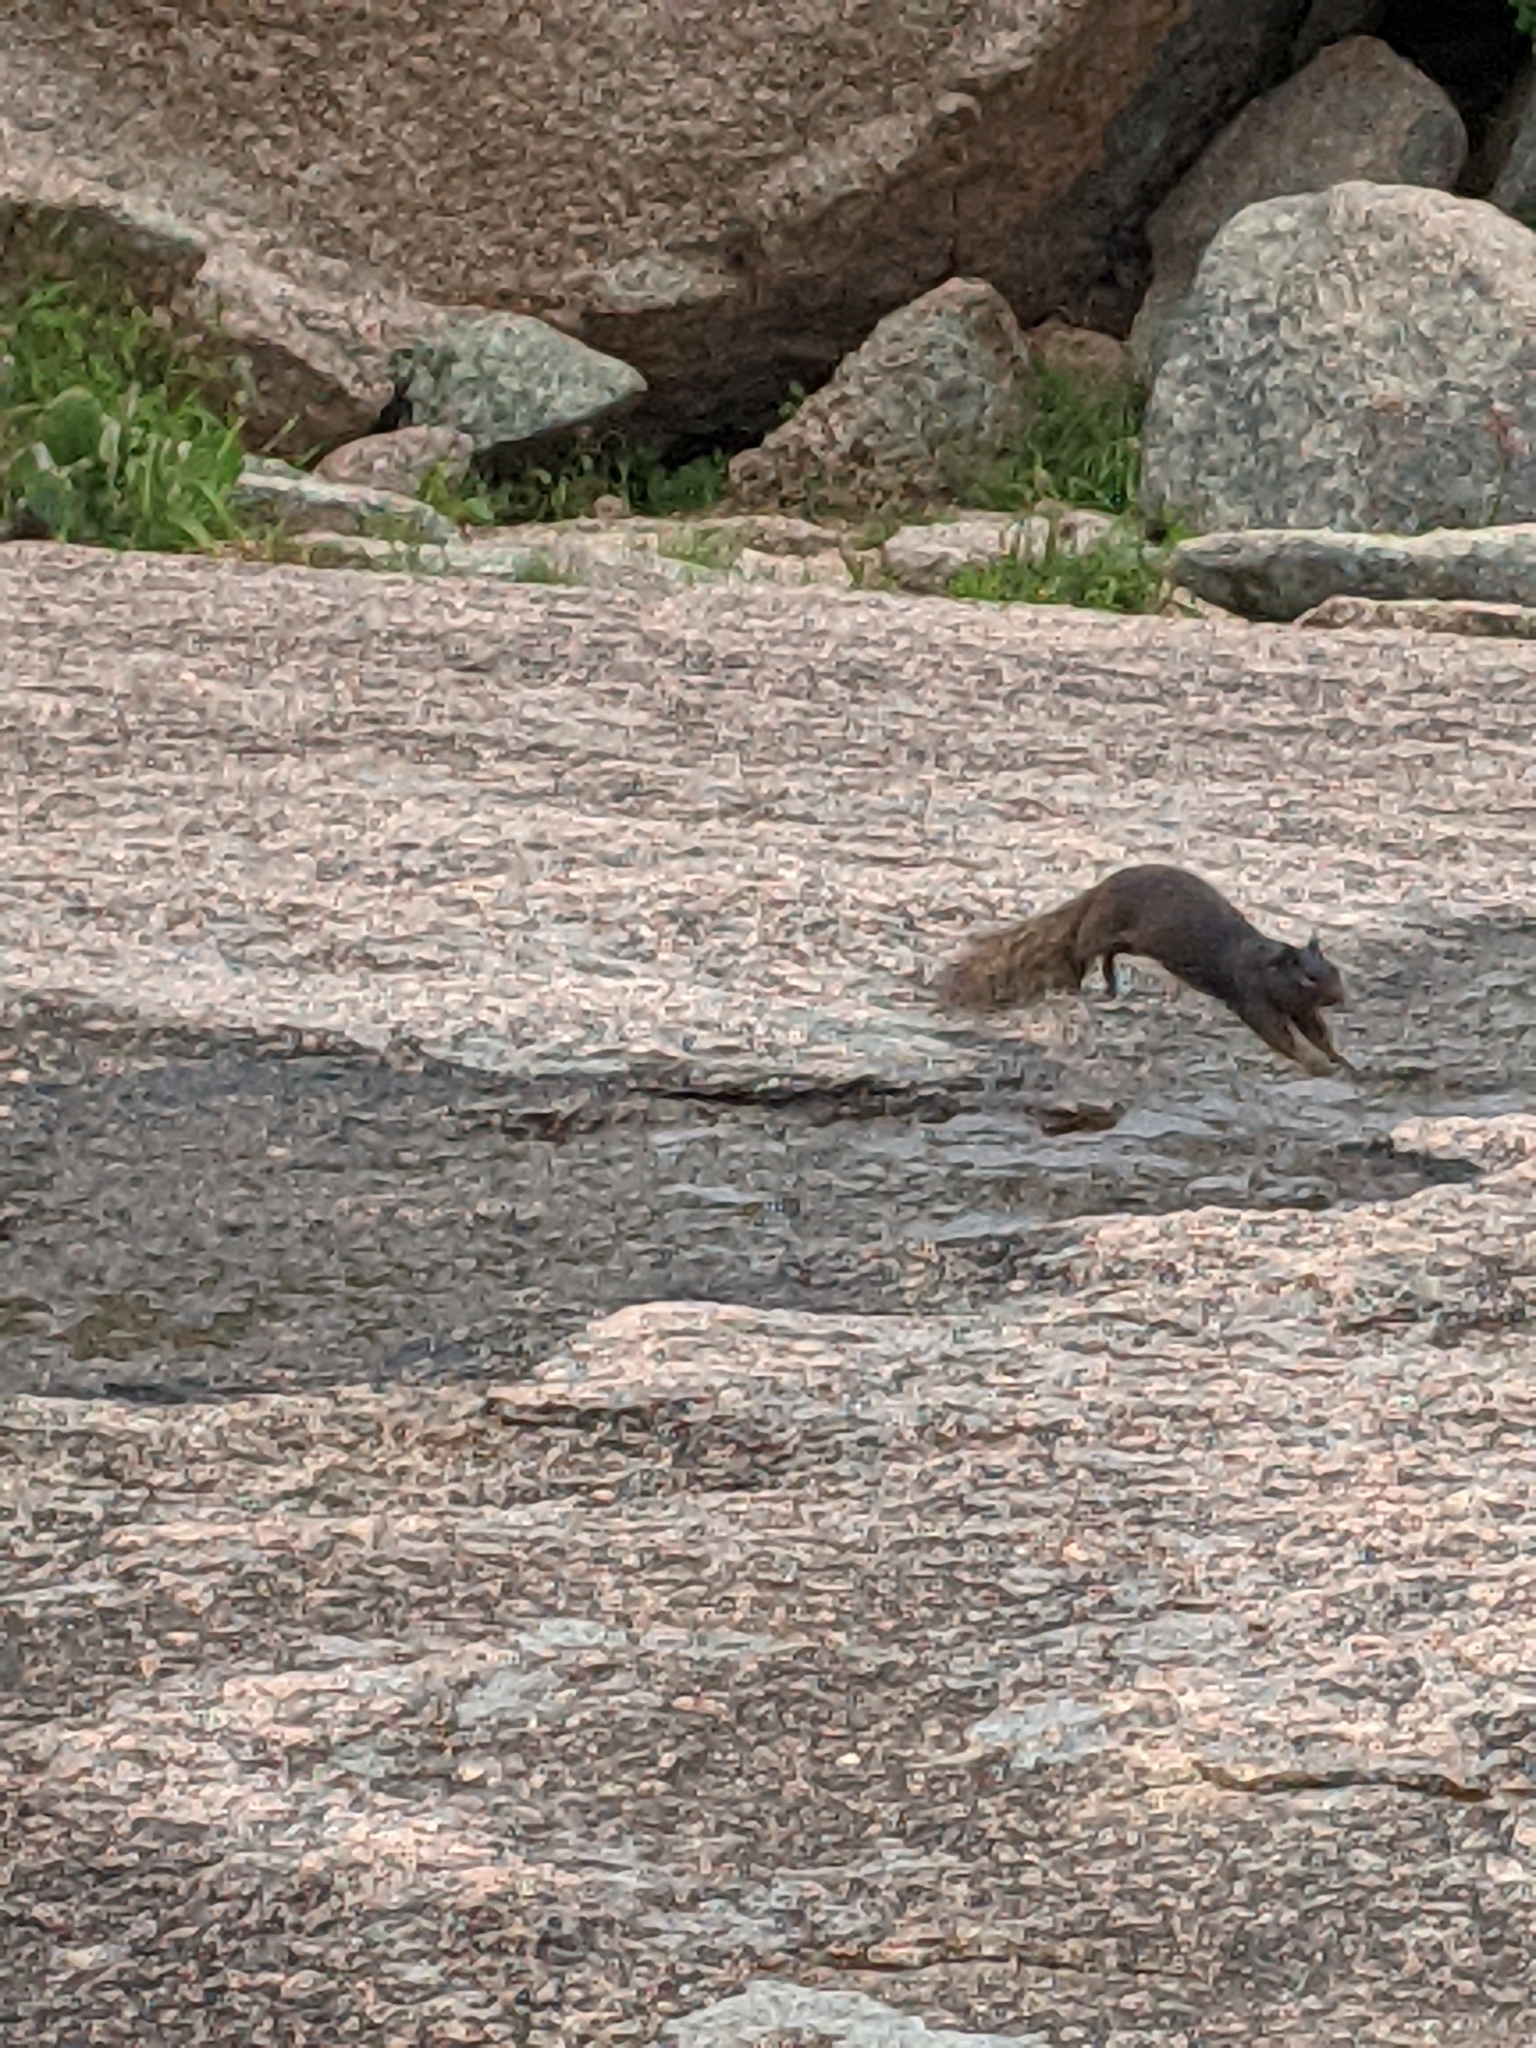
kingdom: Animalia
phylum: Chordata
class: Mammalia
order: Rodentia
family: Sciuridae
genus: Otospermophilus
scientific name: Otospermophilus variegatus
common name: Rock squirrel
